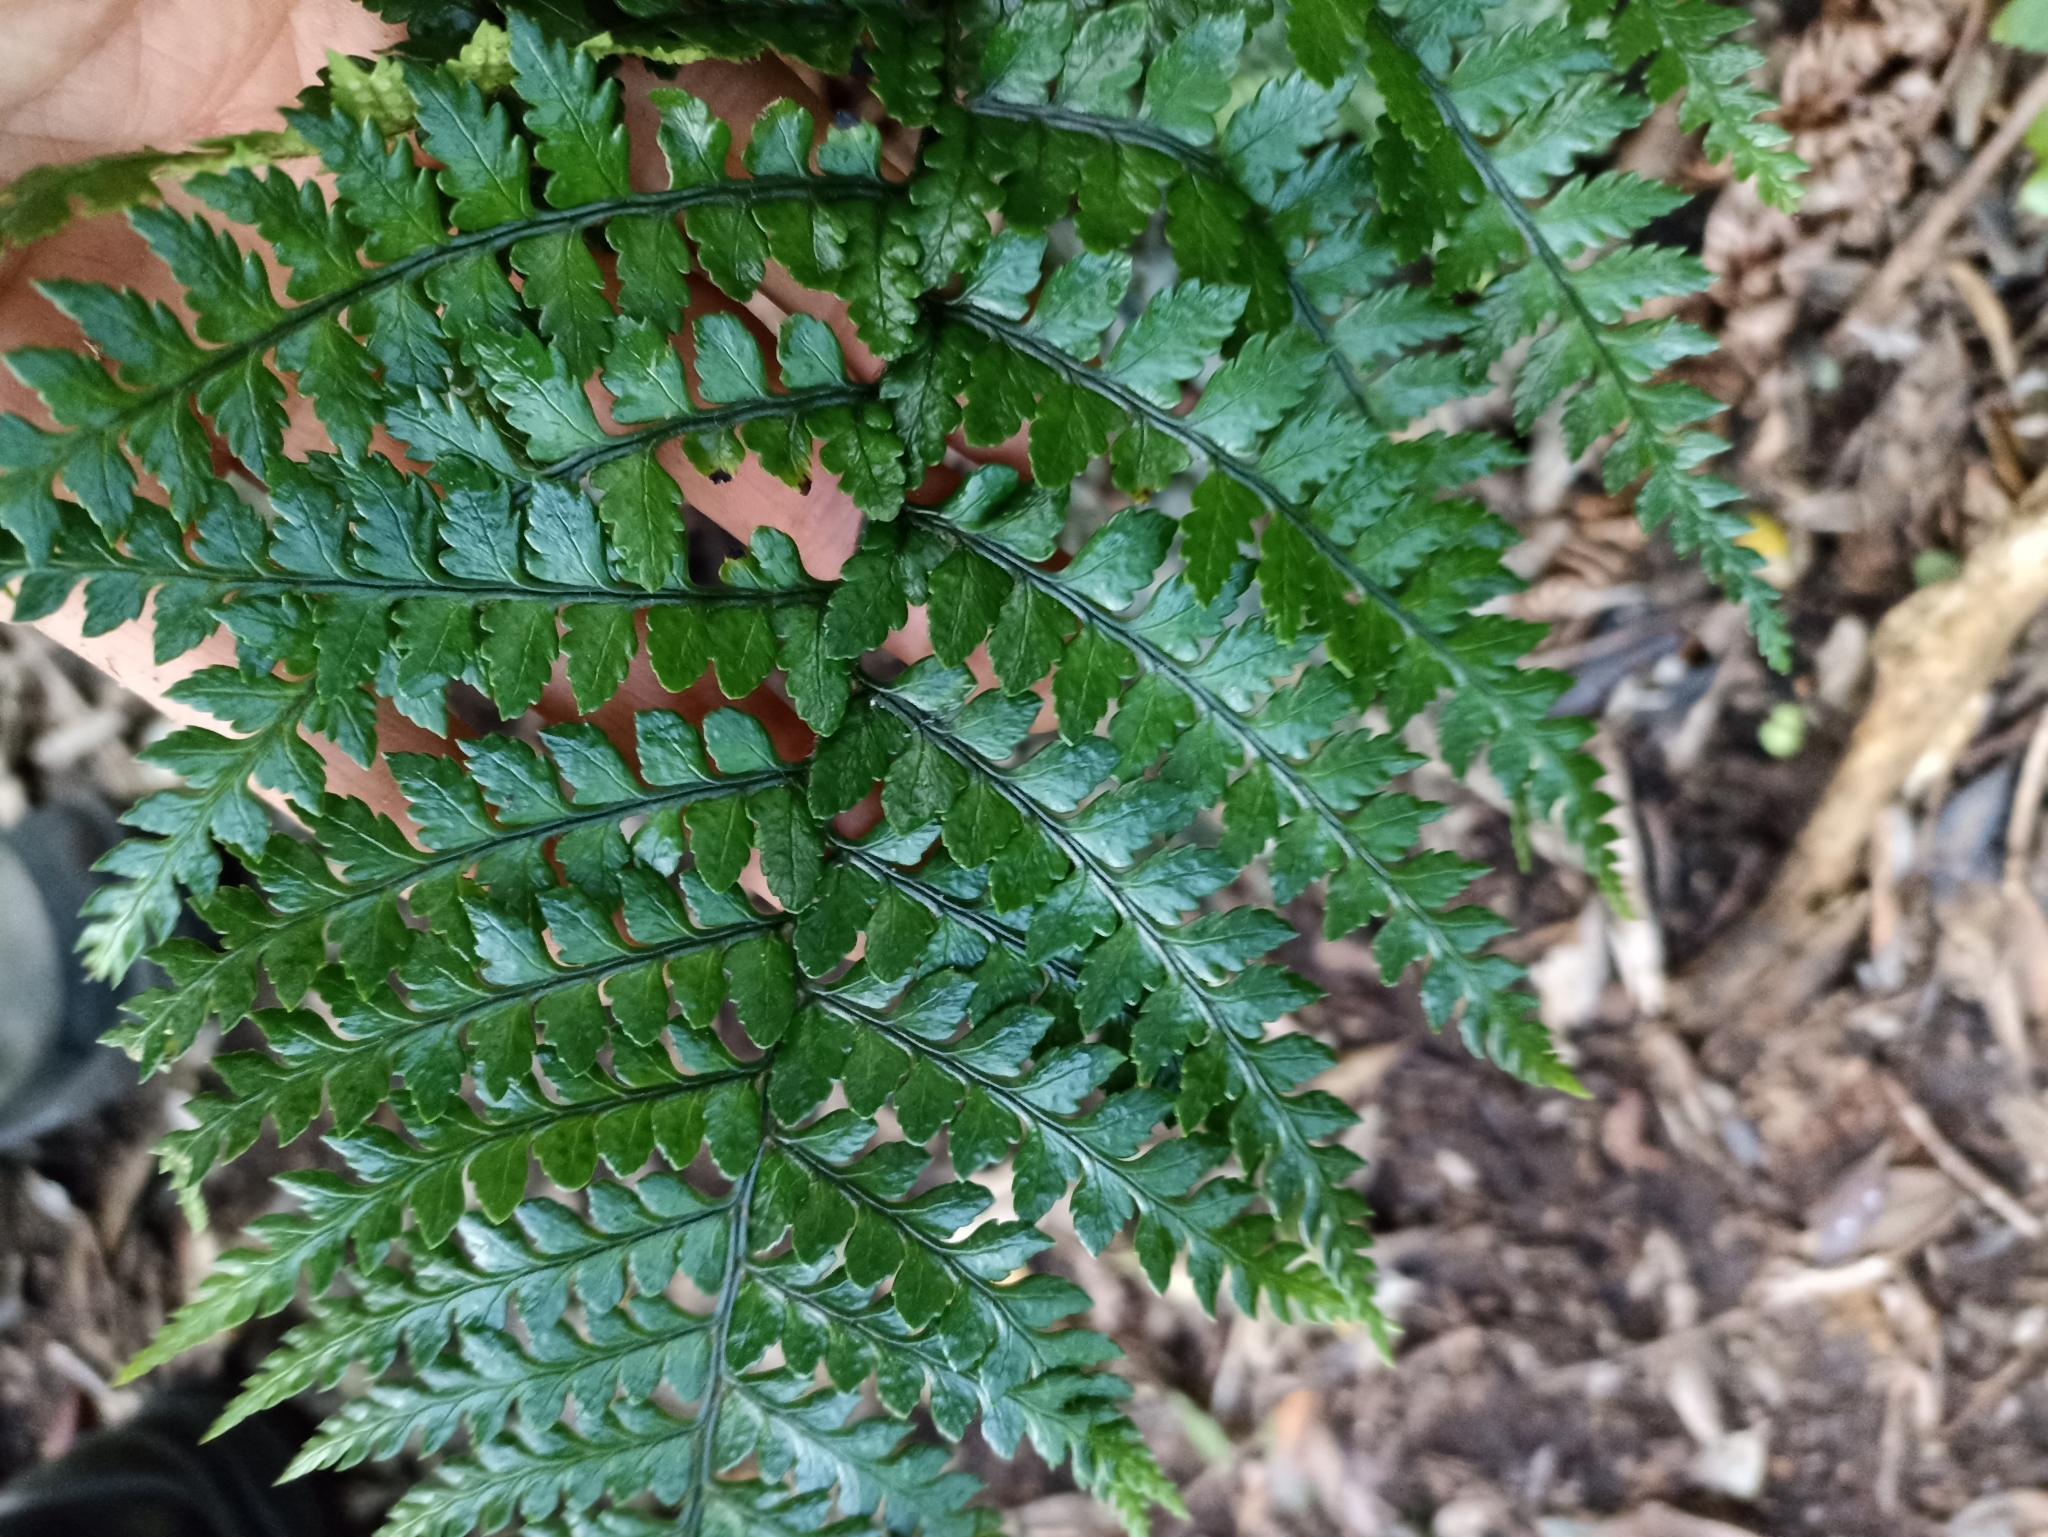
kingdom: Plantae
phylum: Tracheophyta
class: Polypodiopsida
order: Polypodiales
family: Dryopteridaceae
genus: Polystichum
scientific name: Polystichum wawranum
